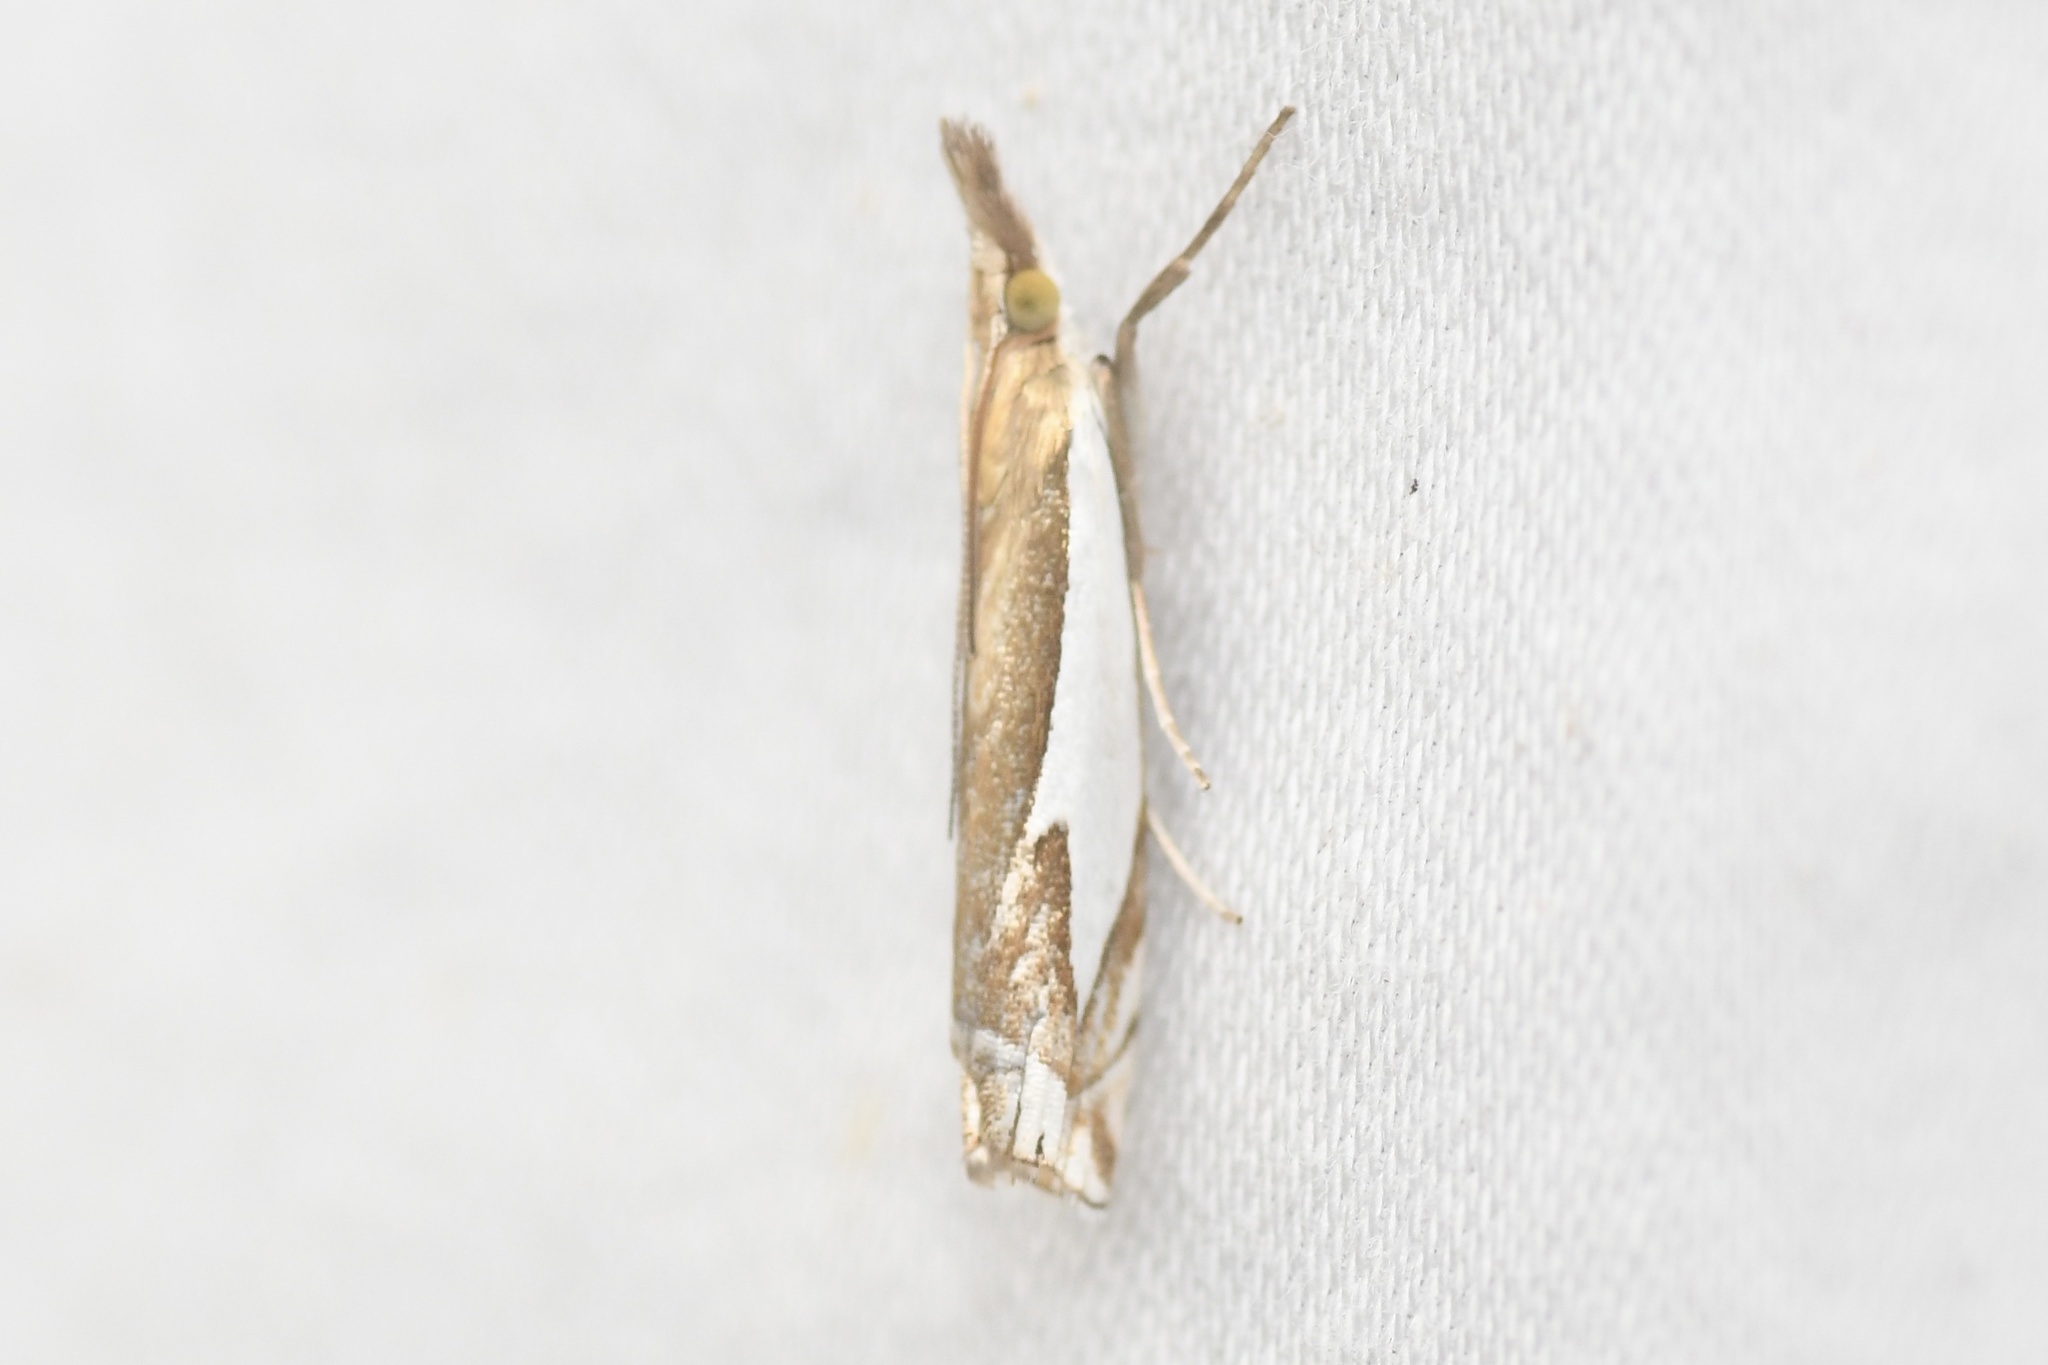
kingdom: Animalia
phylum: Arthropoda
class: Insecta
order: Lepidoptera
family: Crambidae
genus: Crambus
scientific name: Crambus bidens
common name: Forked grass-veneer
